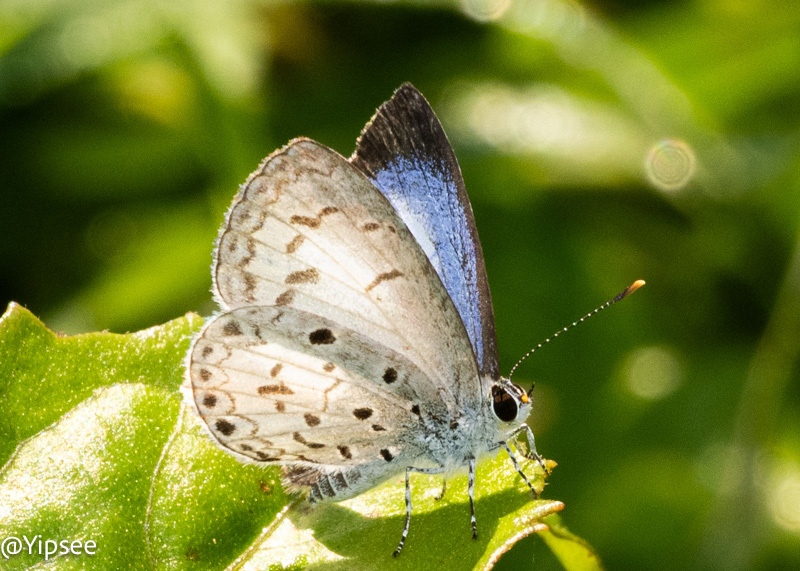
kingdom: Animalia
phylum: Arthropoda
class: Insecta
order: Lepidoptera
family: Lycaenidae
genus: Acytolepis
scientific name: Acytolepis puspa
